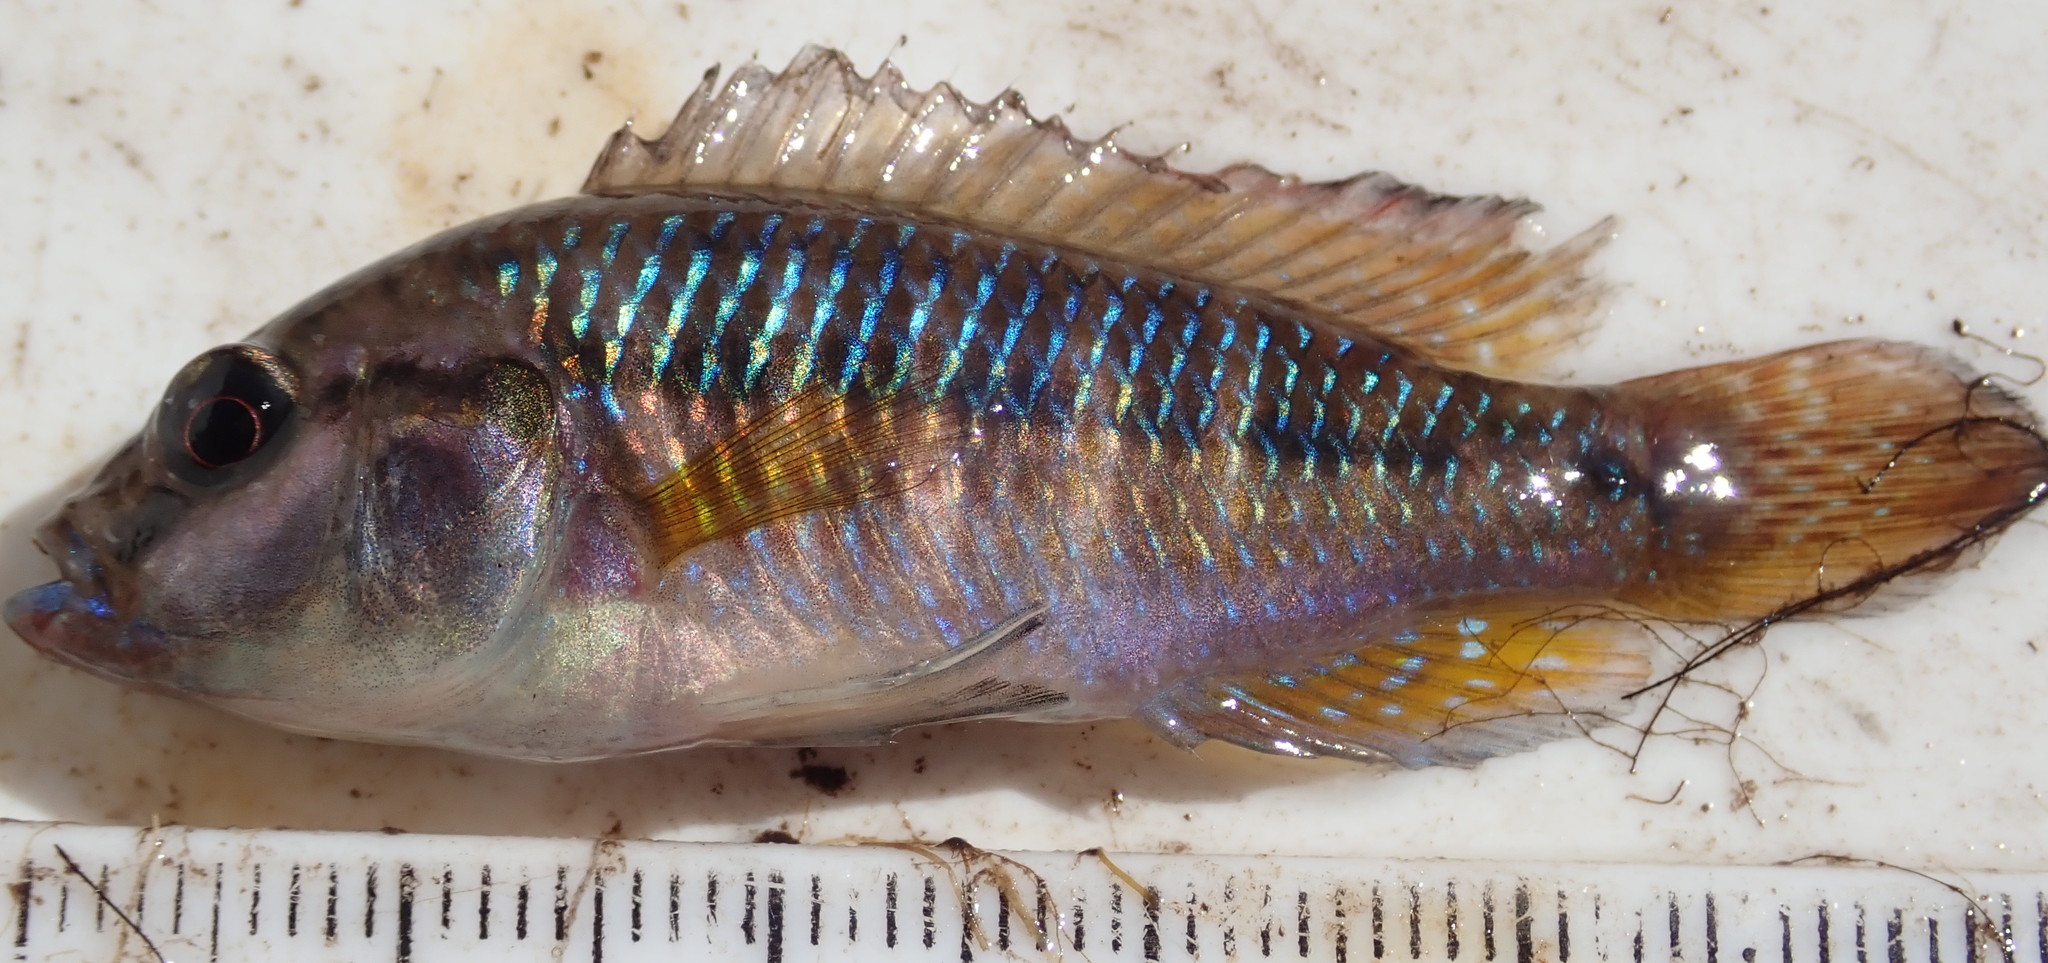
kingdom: Animalia
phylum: Chordata
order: Perciformes
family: Cichlidae
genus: Pseudocrenilabrus
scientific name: Pseudocrenilabrus philander
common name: Southern mouthbrooder
